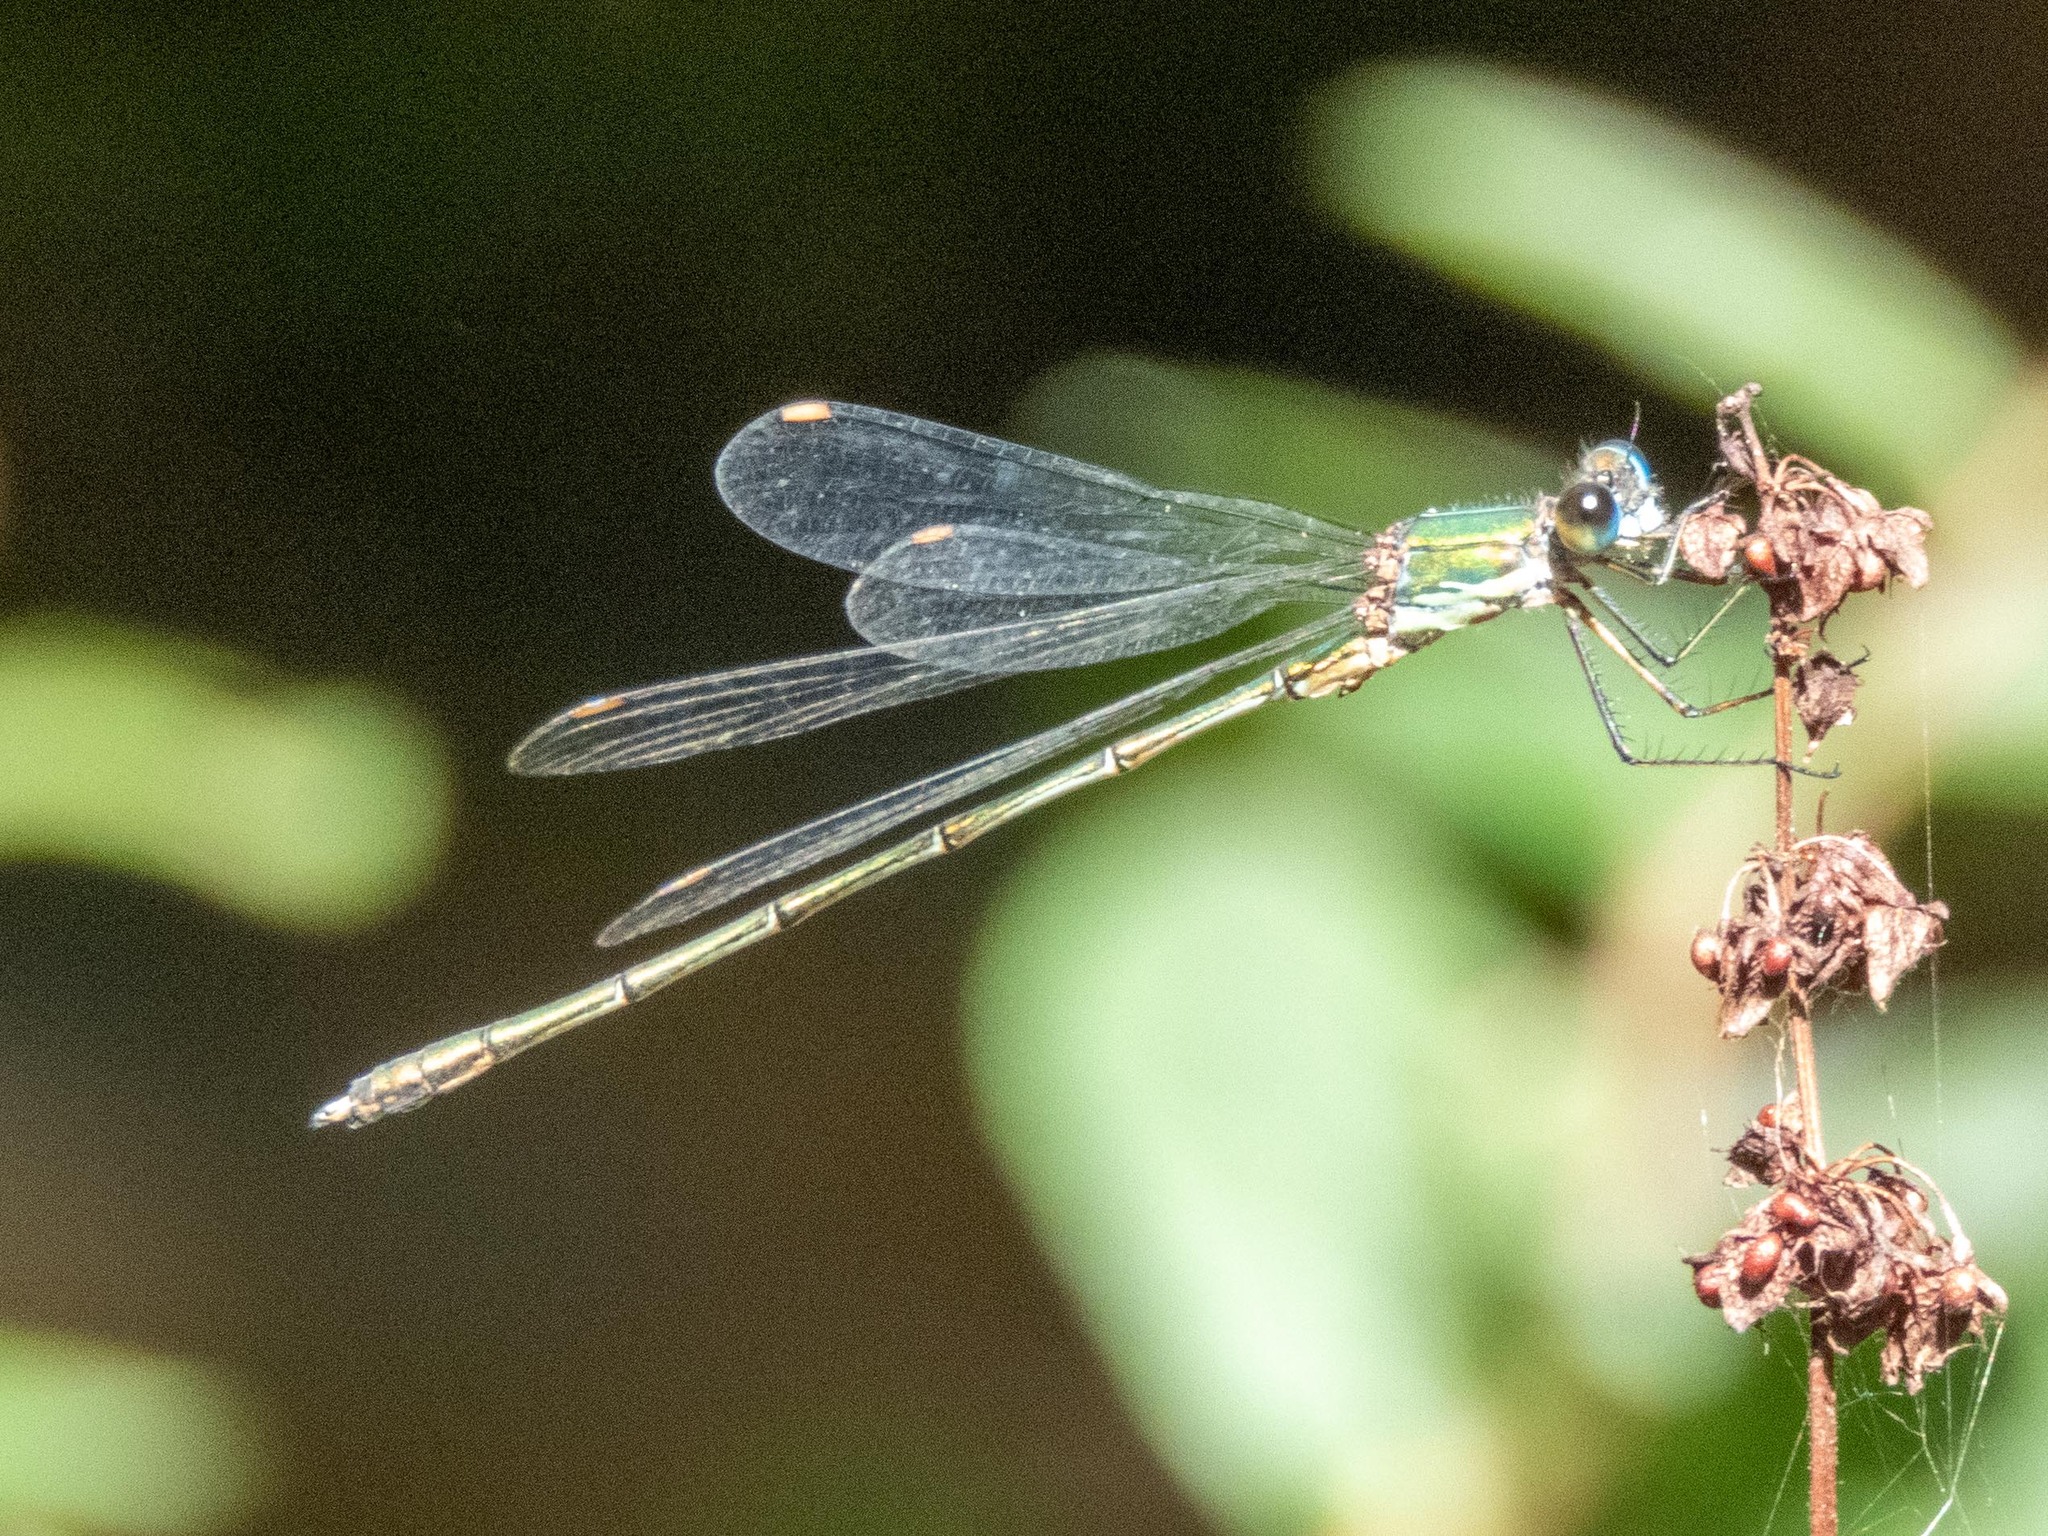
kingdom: Animalia
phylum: Arthropoda
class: Insecta
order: Odonata
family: Lestidae
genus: Chalcolestes
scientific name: Chalcolestes viridis
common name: Green emerald damselfly
